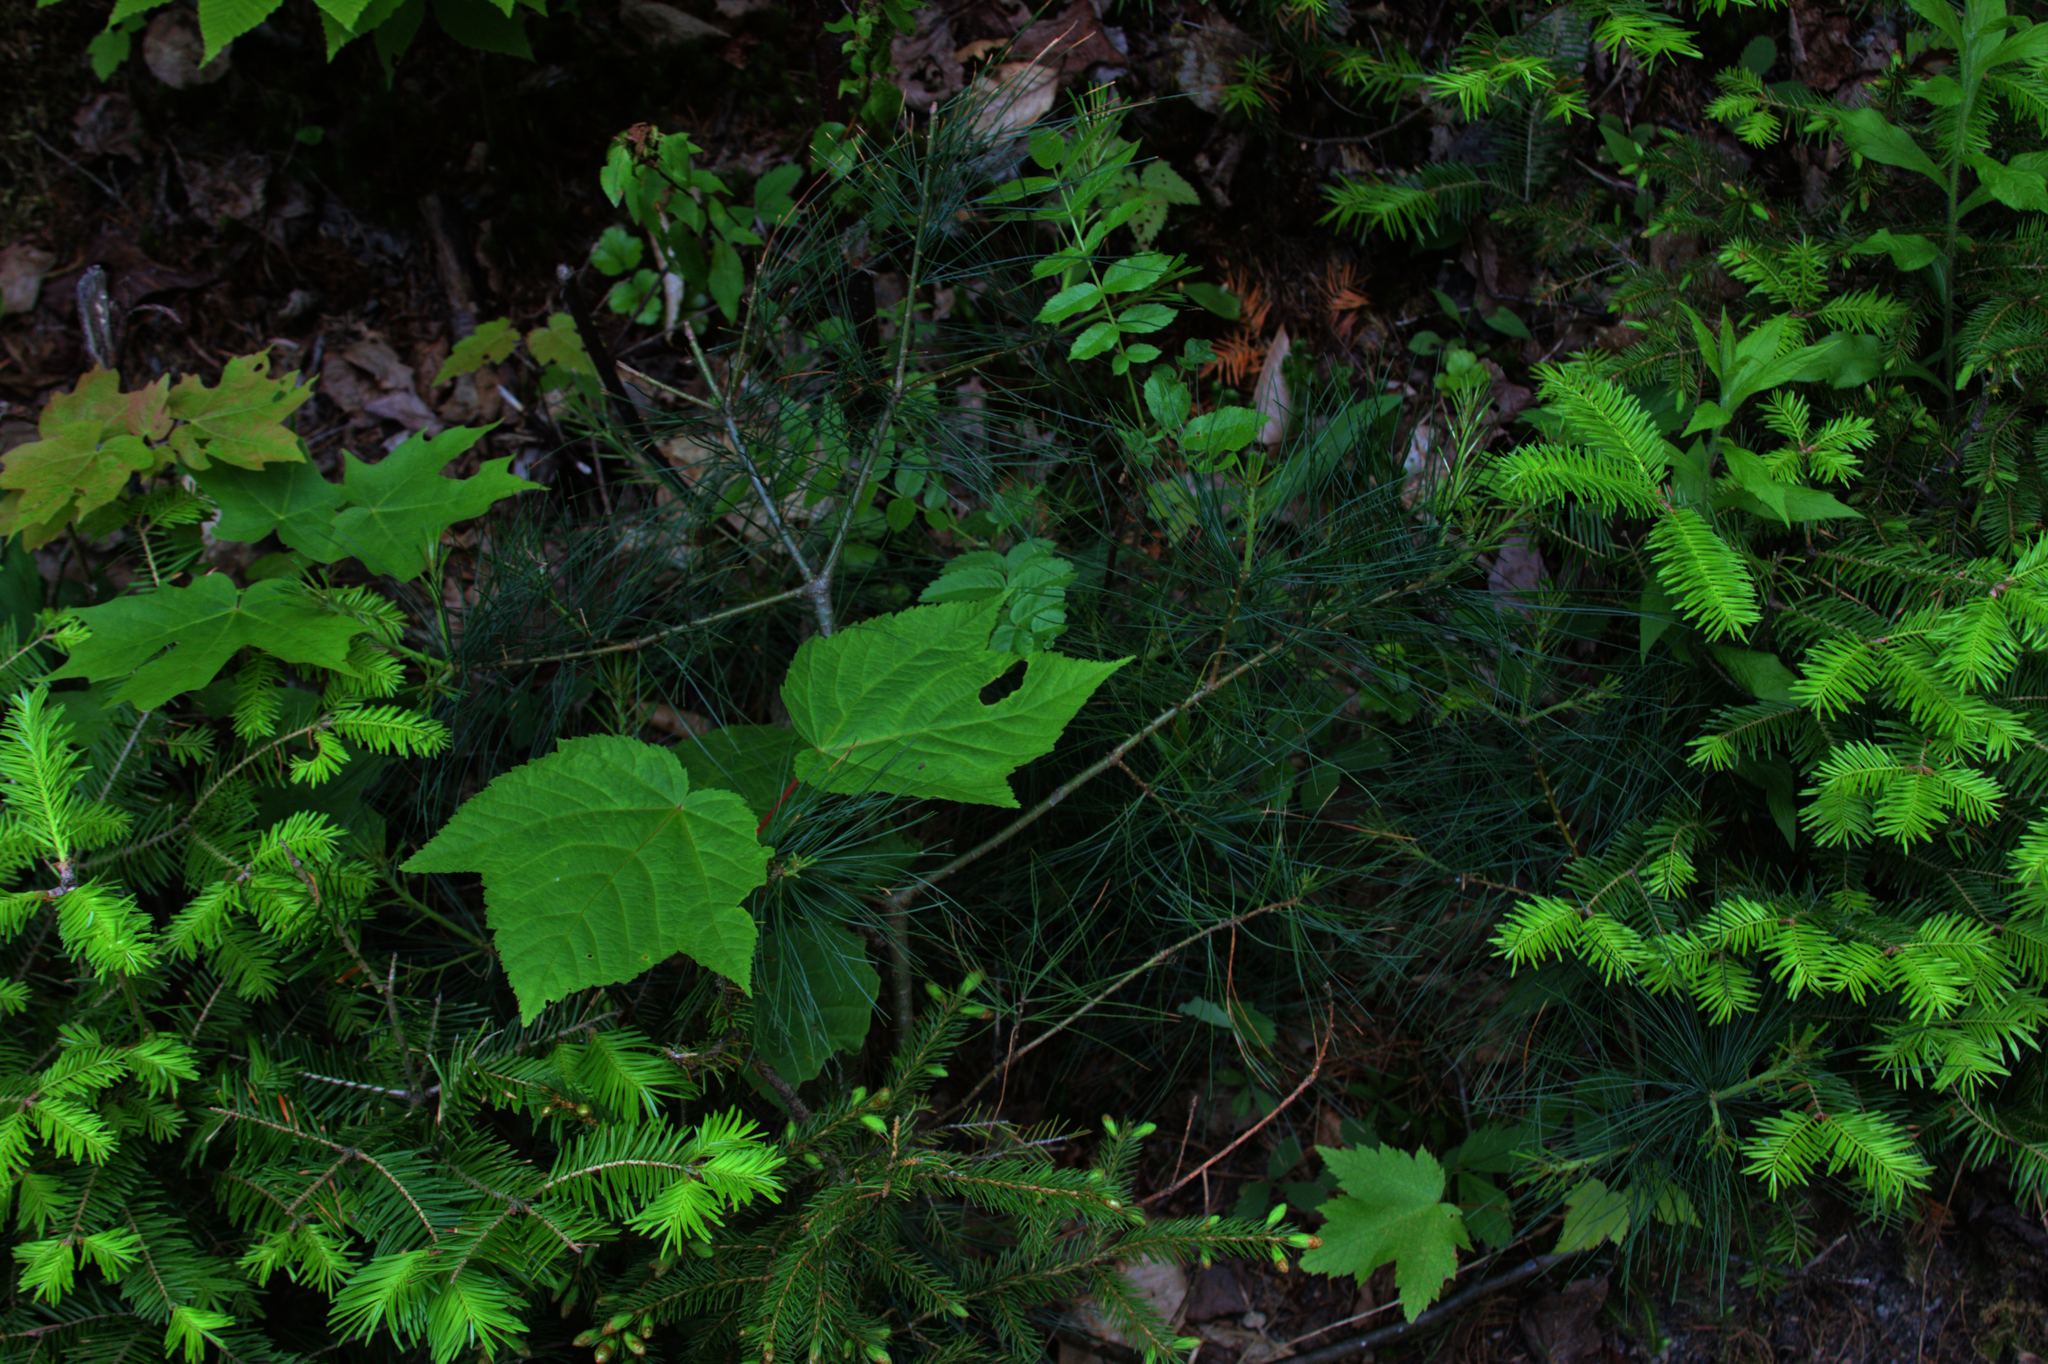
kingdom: Plantae
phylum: Tracheophyta
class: Pinopsida
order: Pinales
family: Pinaceae
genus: Pinus
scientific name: Pinus strobus
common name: Weymouth pine
